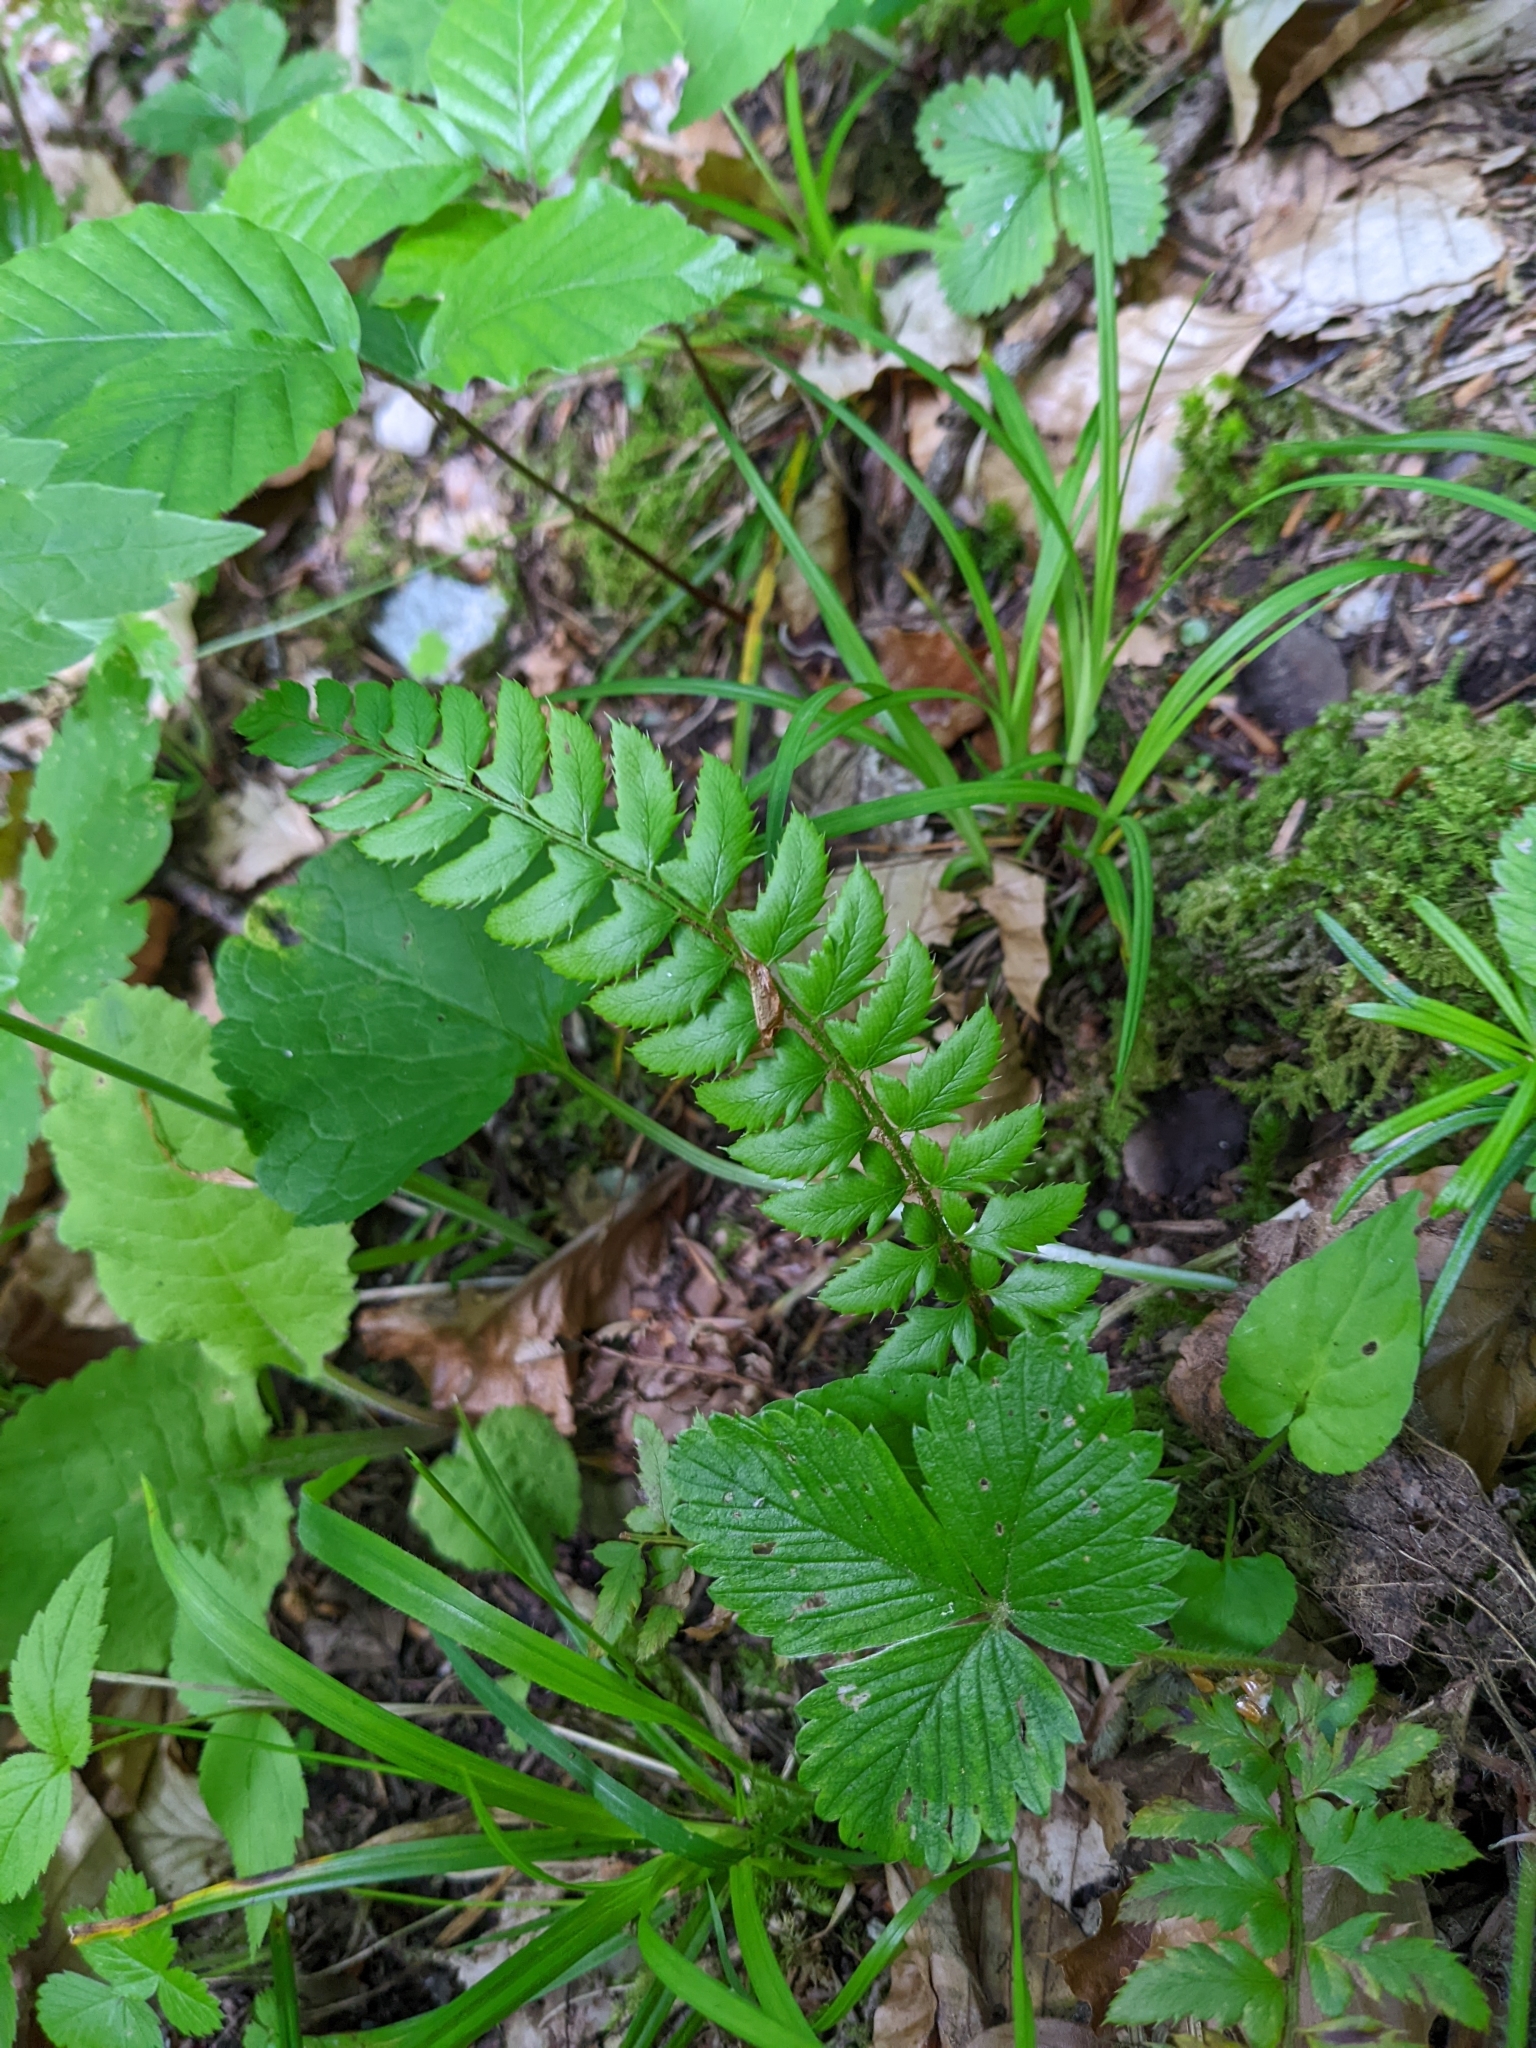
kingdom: Plantae
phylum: Tracheophyta
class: Polypodiopsida
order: Polypodiales
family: Dryopteridaceae
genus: Polystichum
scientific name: Polystichum aculeatum
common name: Hard shield-fern
